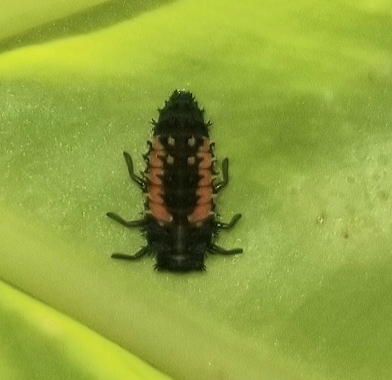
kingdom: Animalia
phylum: Arthropoda
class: Insecta
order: Coleoptera
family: Coccinellidae
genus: Harmonia
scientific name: Harmonia axyridis
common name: Harlequin ladybird
